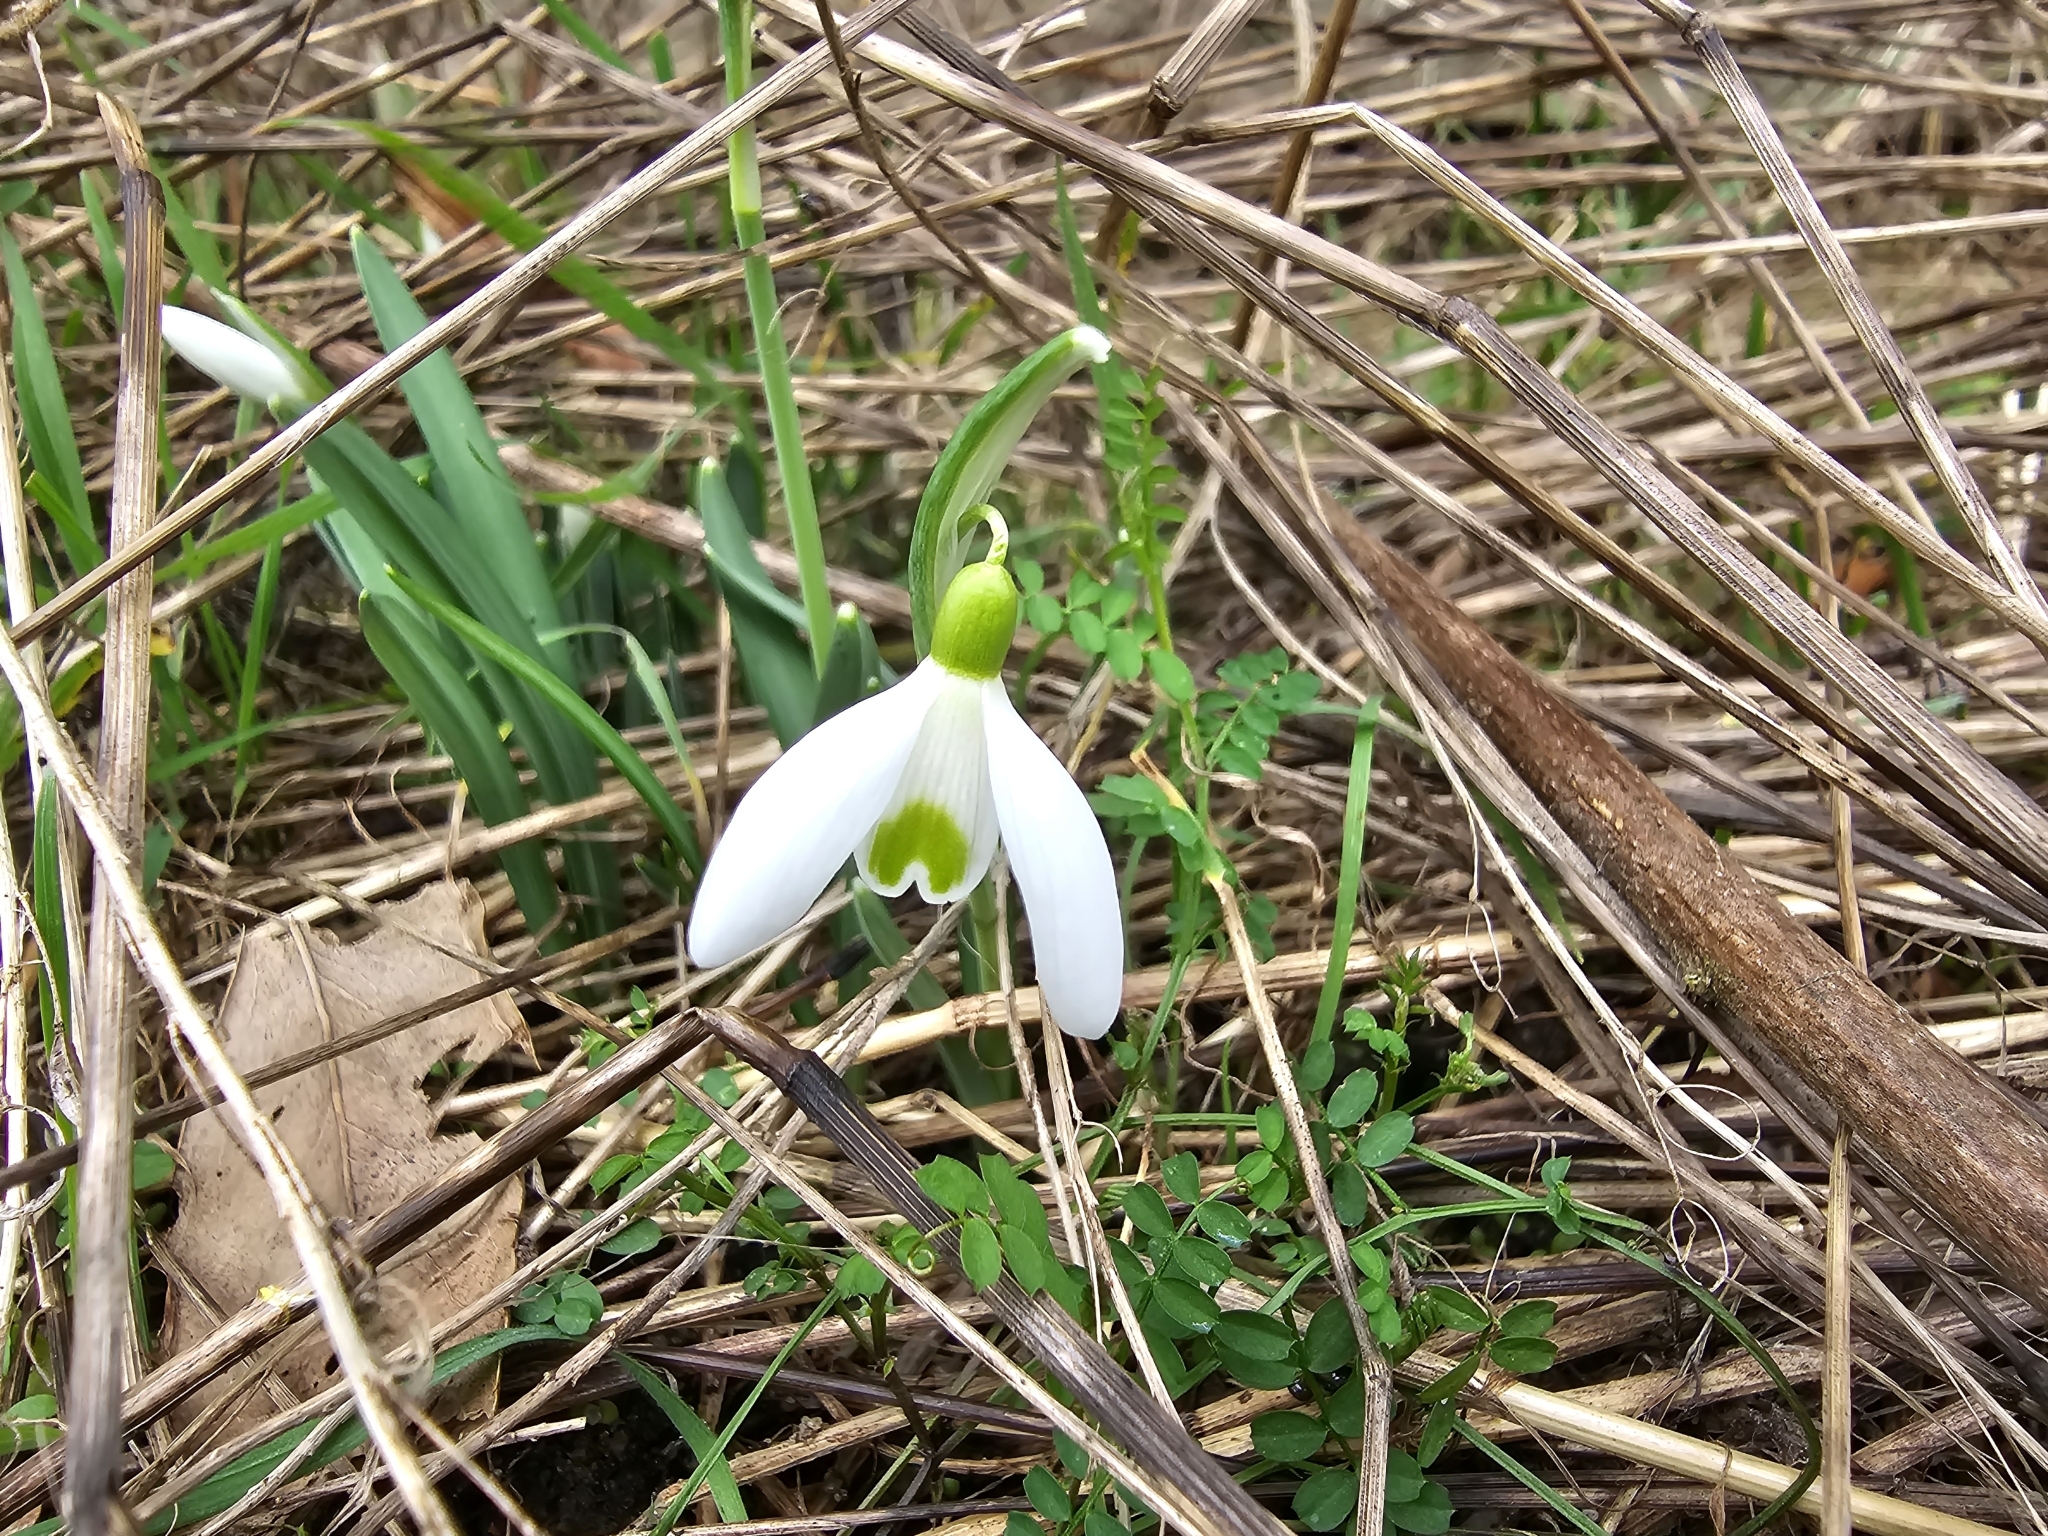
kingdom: Plantae
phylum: Tracheophyta
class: Liliopsida
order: Asparagales
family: Amaryllidaceae
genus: Galanthus
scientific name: Galanthus nivalis
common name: Snowdrop
